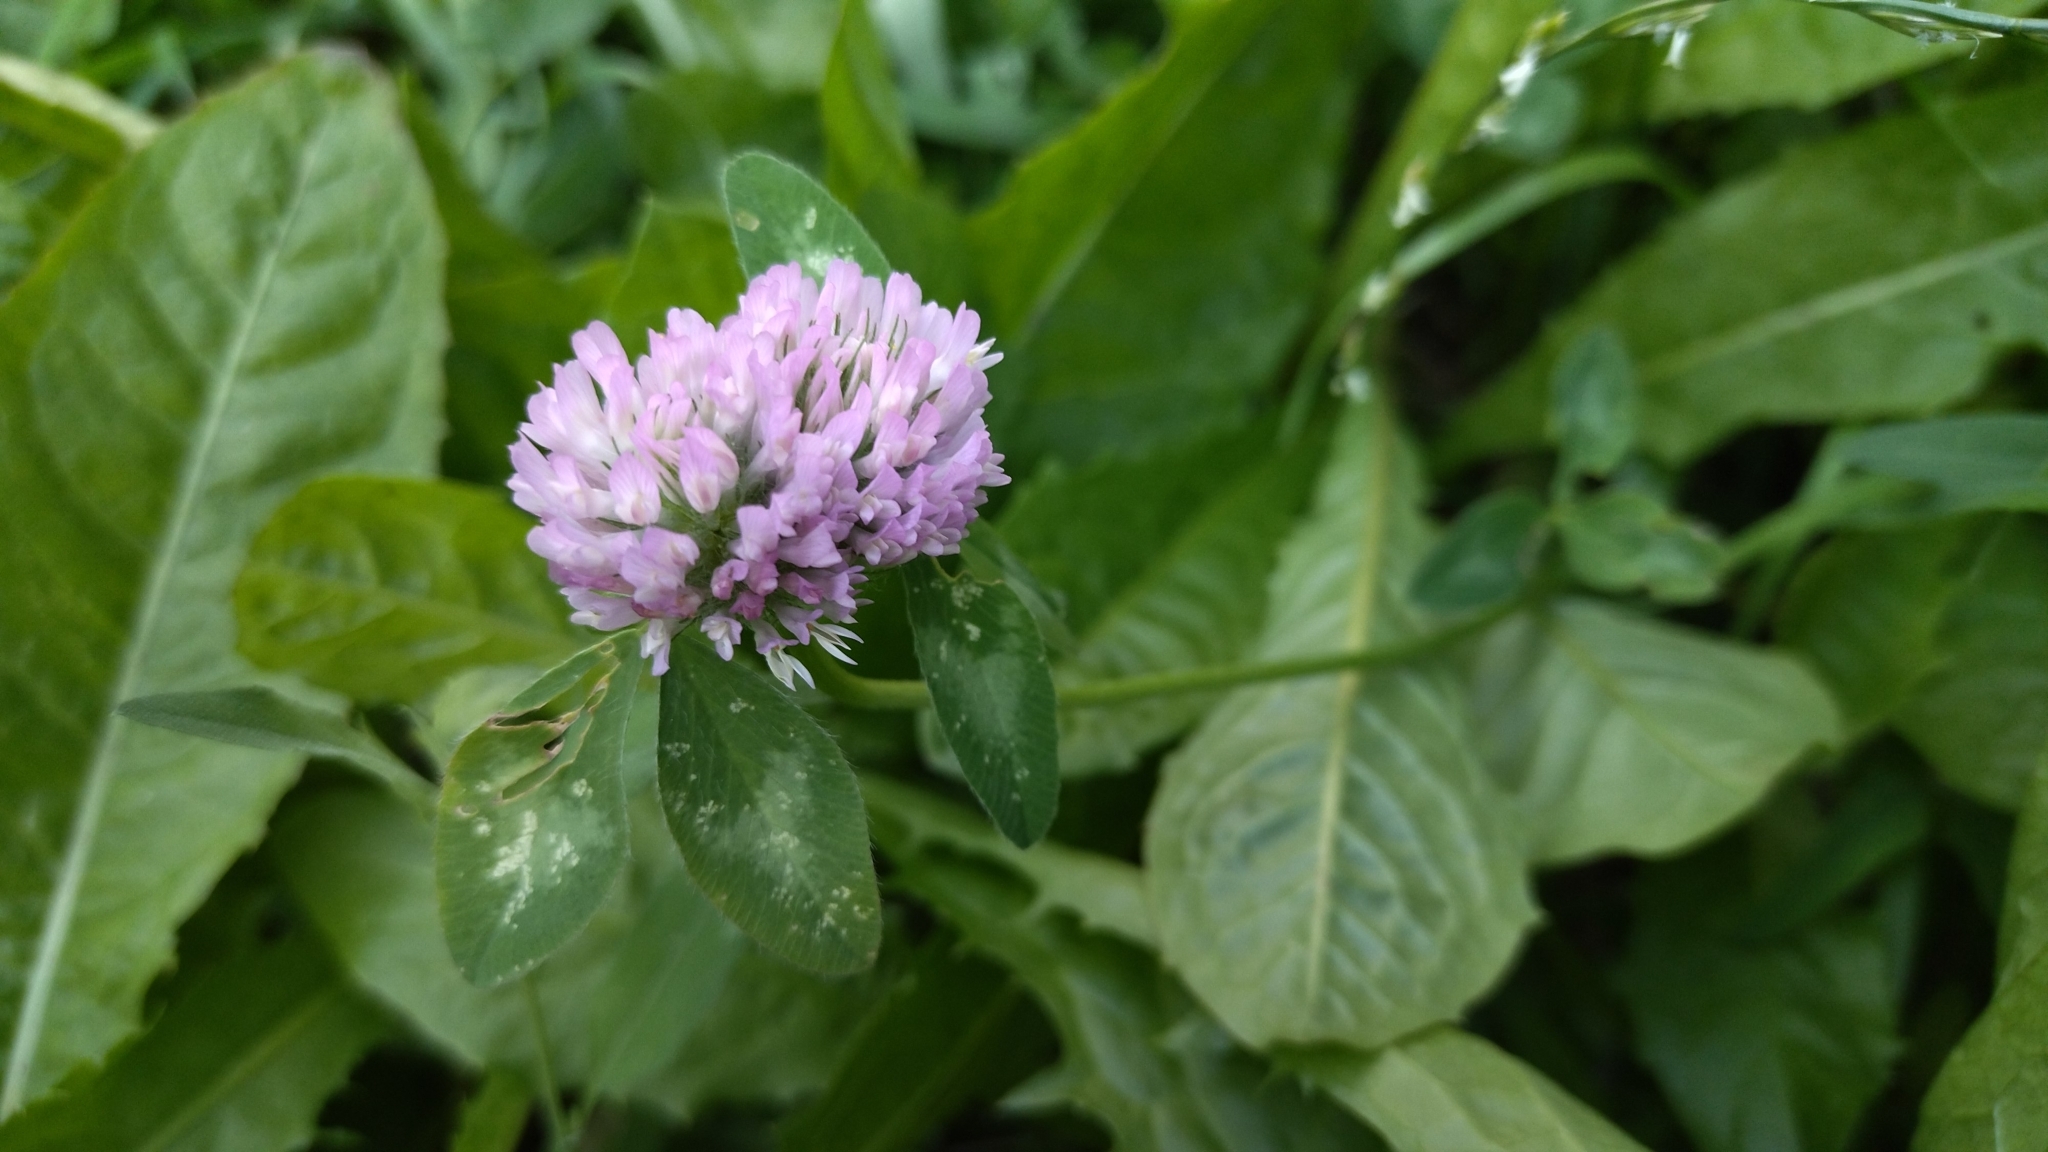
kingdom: Plantae
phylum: Tracheophyta
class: Magnoliopsida
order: Fabales
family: Fabaceae
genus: Trifolium
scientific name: Trifolium pratense
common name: Red clover
